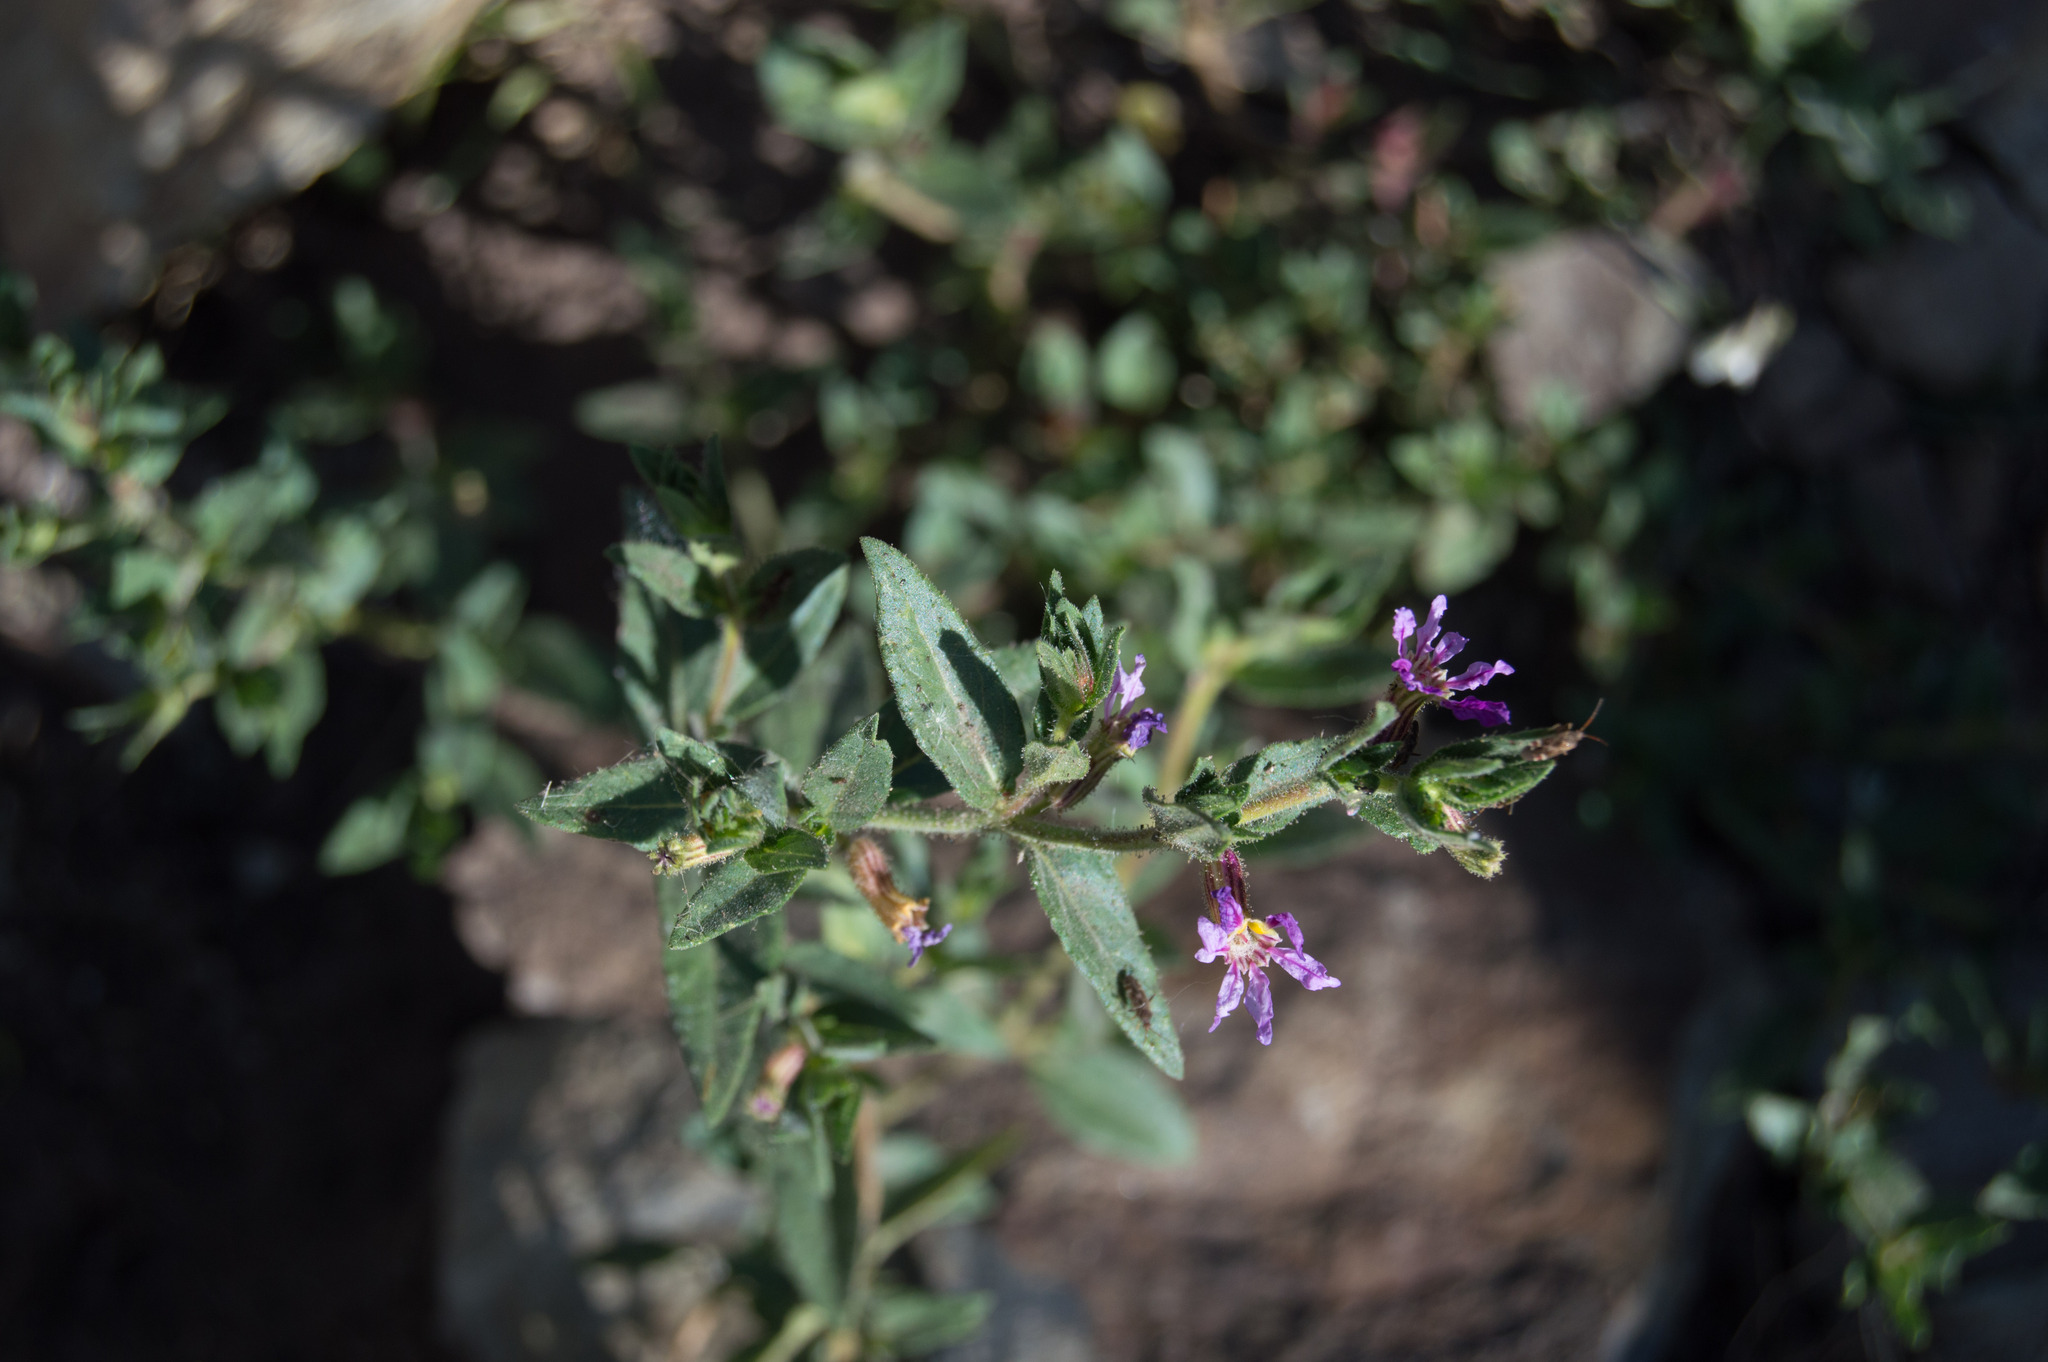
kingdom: Plantae
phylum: Tracheophyta
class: Magnoliopsida
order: Myrtales
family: Lythraceae
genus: Cuphea
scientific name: Cuphea glutinosa
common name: Sticky waxweed
